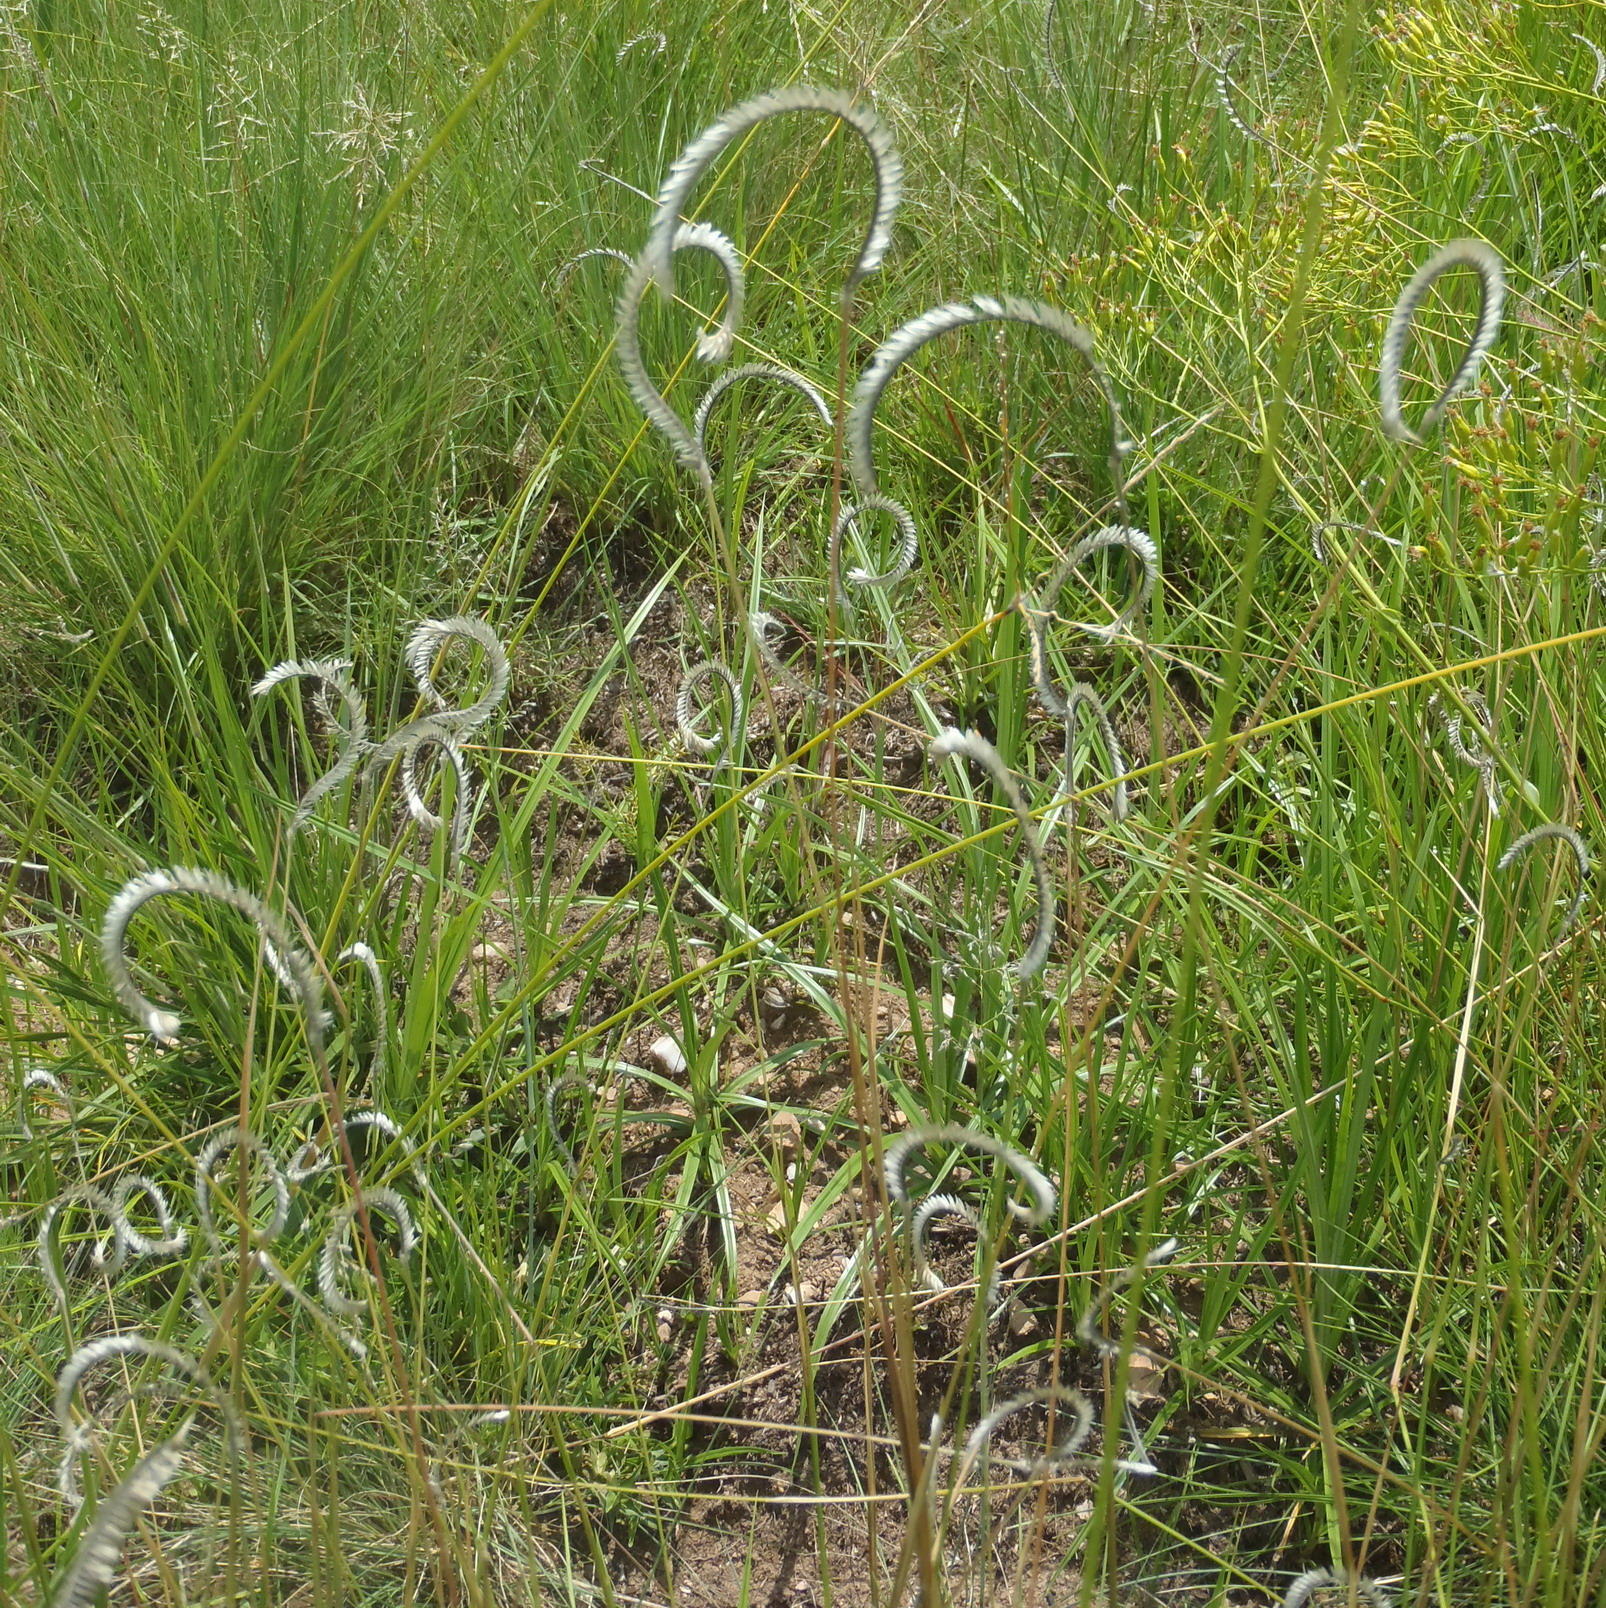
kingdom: Plantae
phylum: Tracheophyta
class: Liliopsida
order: Poales
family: Poaceae
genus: Harpochloa
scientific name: Harpochloa falx
